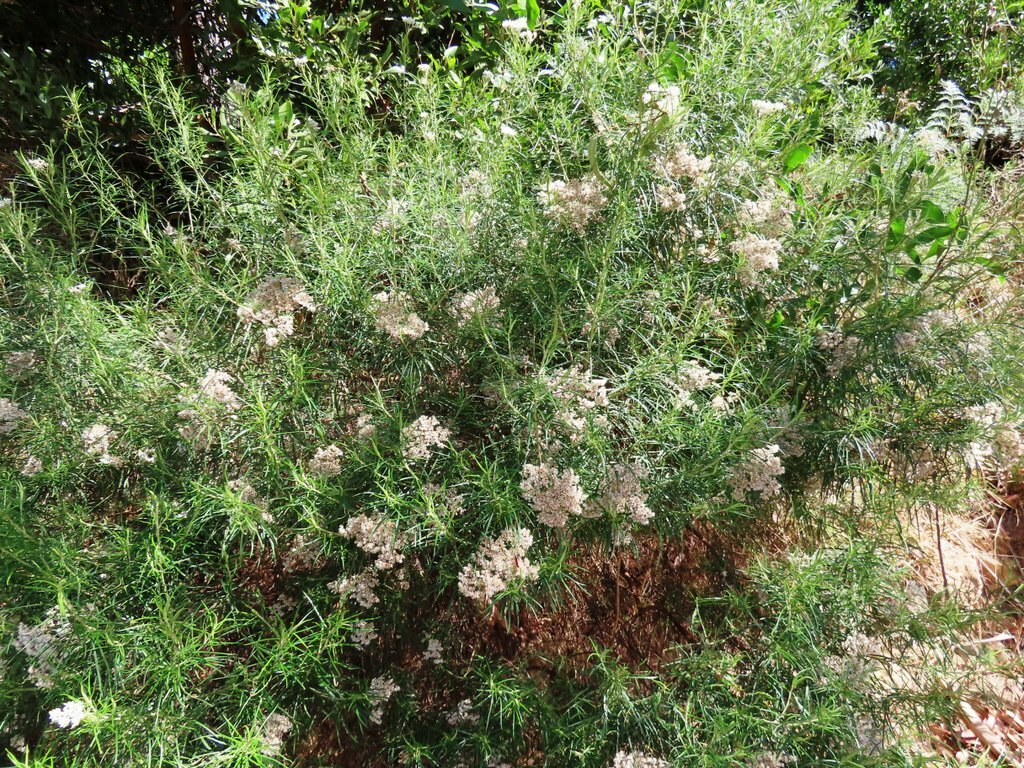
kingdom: Plantae
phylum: Tracheophyta
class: Magnoliopsida
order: Asterales
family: Asteraceae
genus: Cassinia
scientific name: Cassinia longifolia
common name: Longleaf-dogwood
